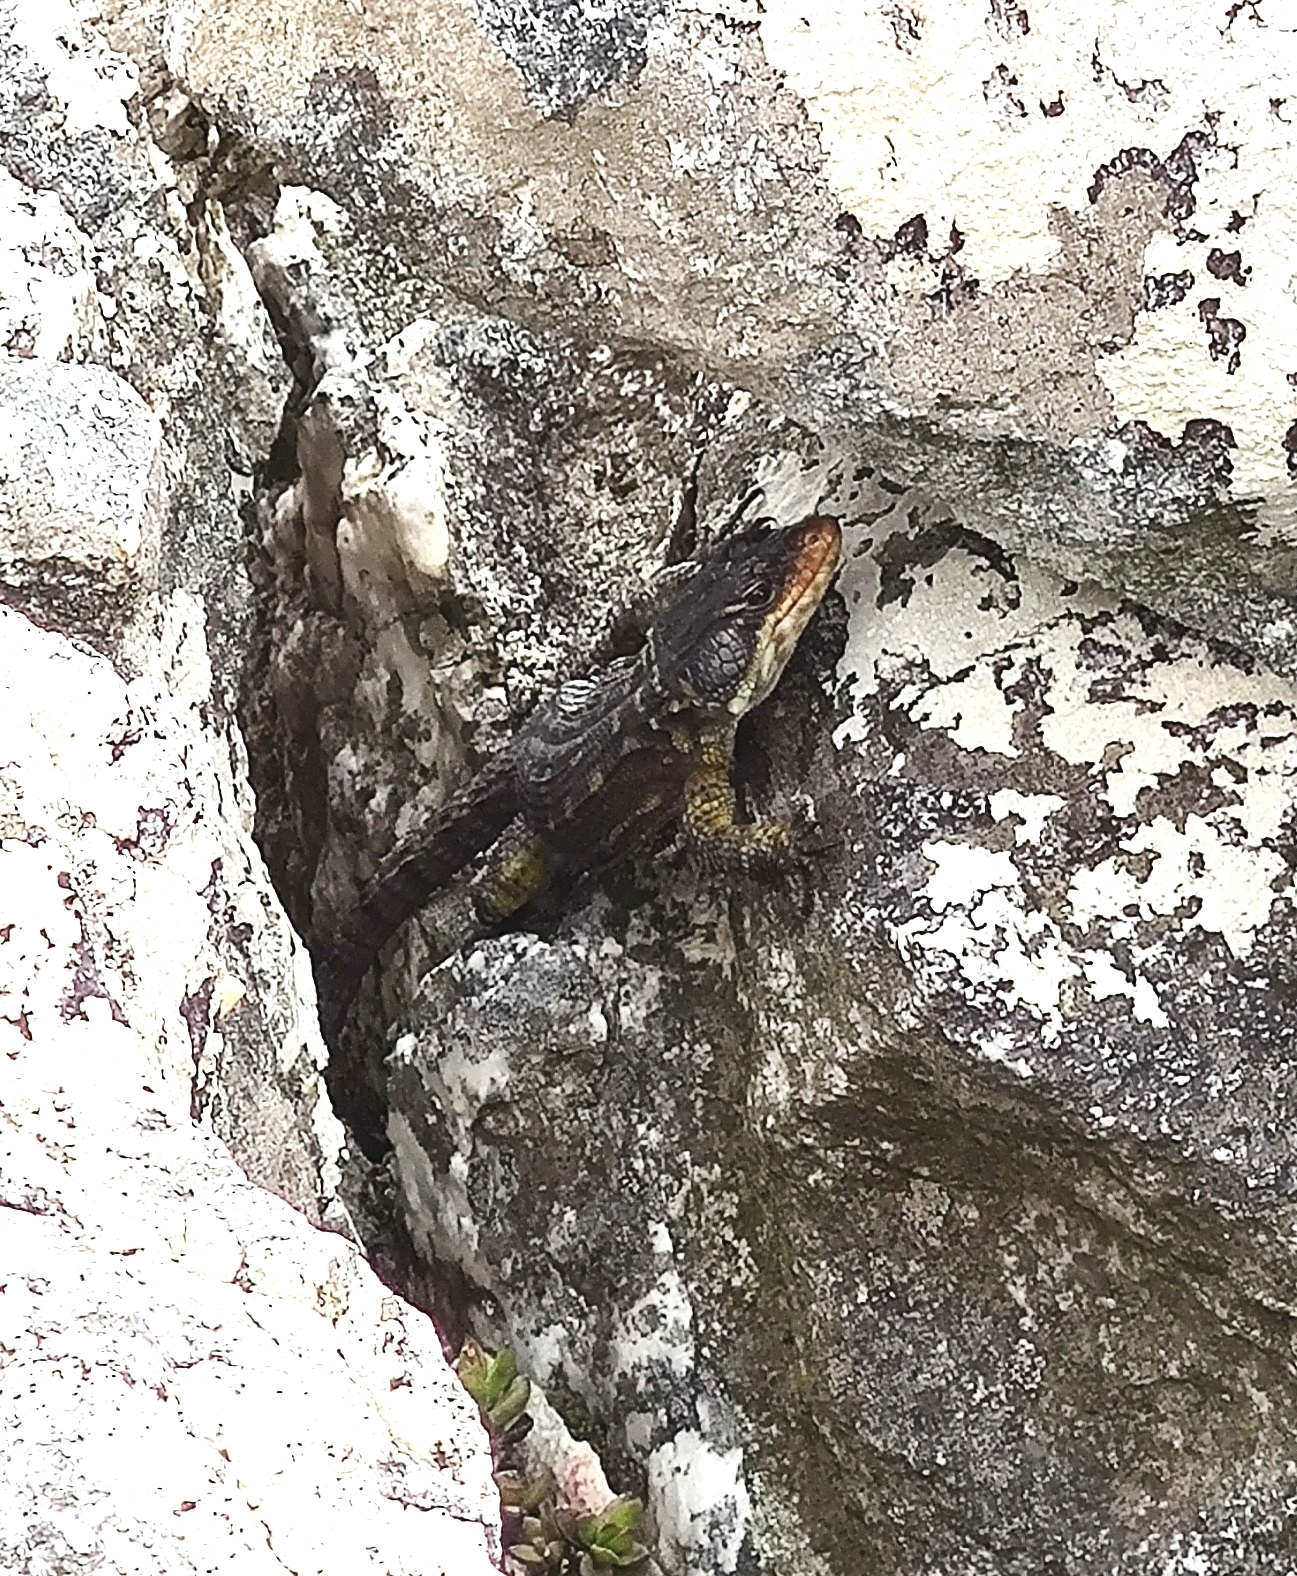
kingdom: Animalia
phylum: Chordata
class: Squamata
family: Cordylidae
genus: Pseudocordylus
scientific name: Pseudocordylus microlepidotus
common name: Cape crag lizard
